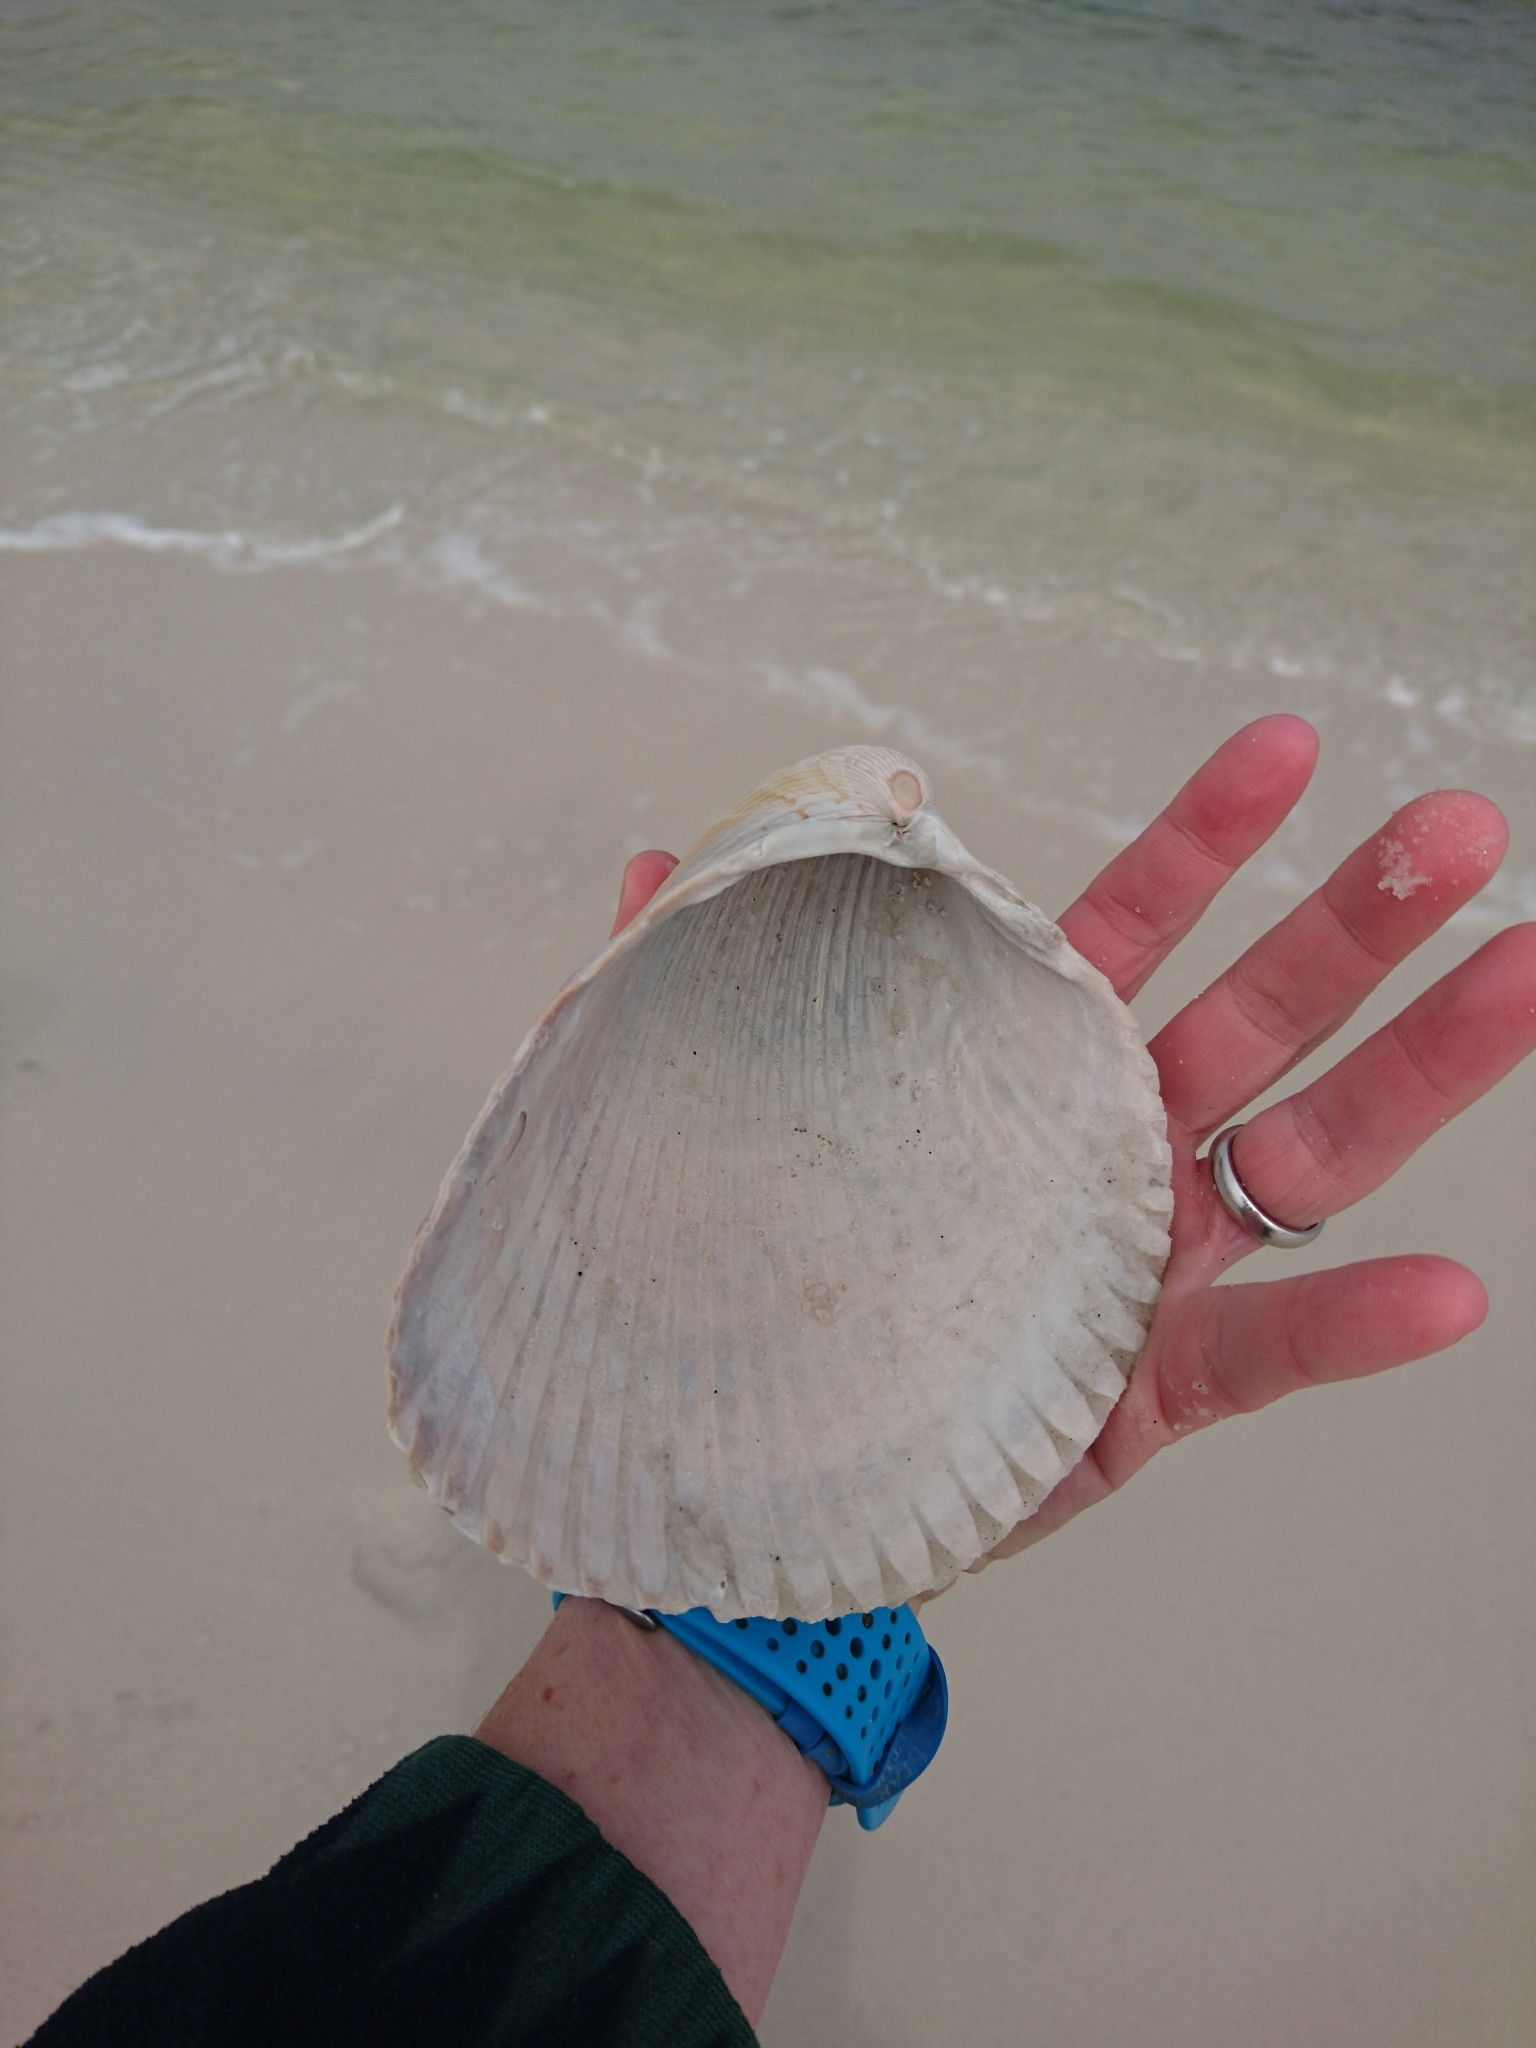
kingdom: Animalia
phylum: Mollusca
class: Bivalvia
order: Cardiida
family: Cardiidae
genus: Dinocardium
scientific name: Dinocardium robustum
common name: Atlantic giant cockle
